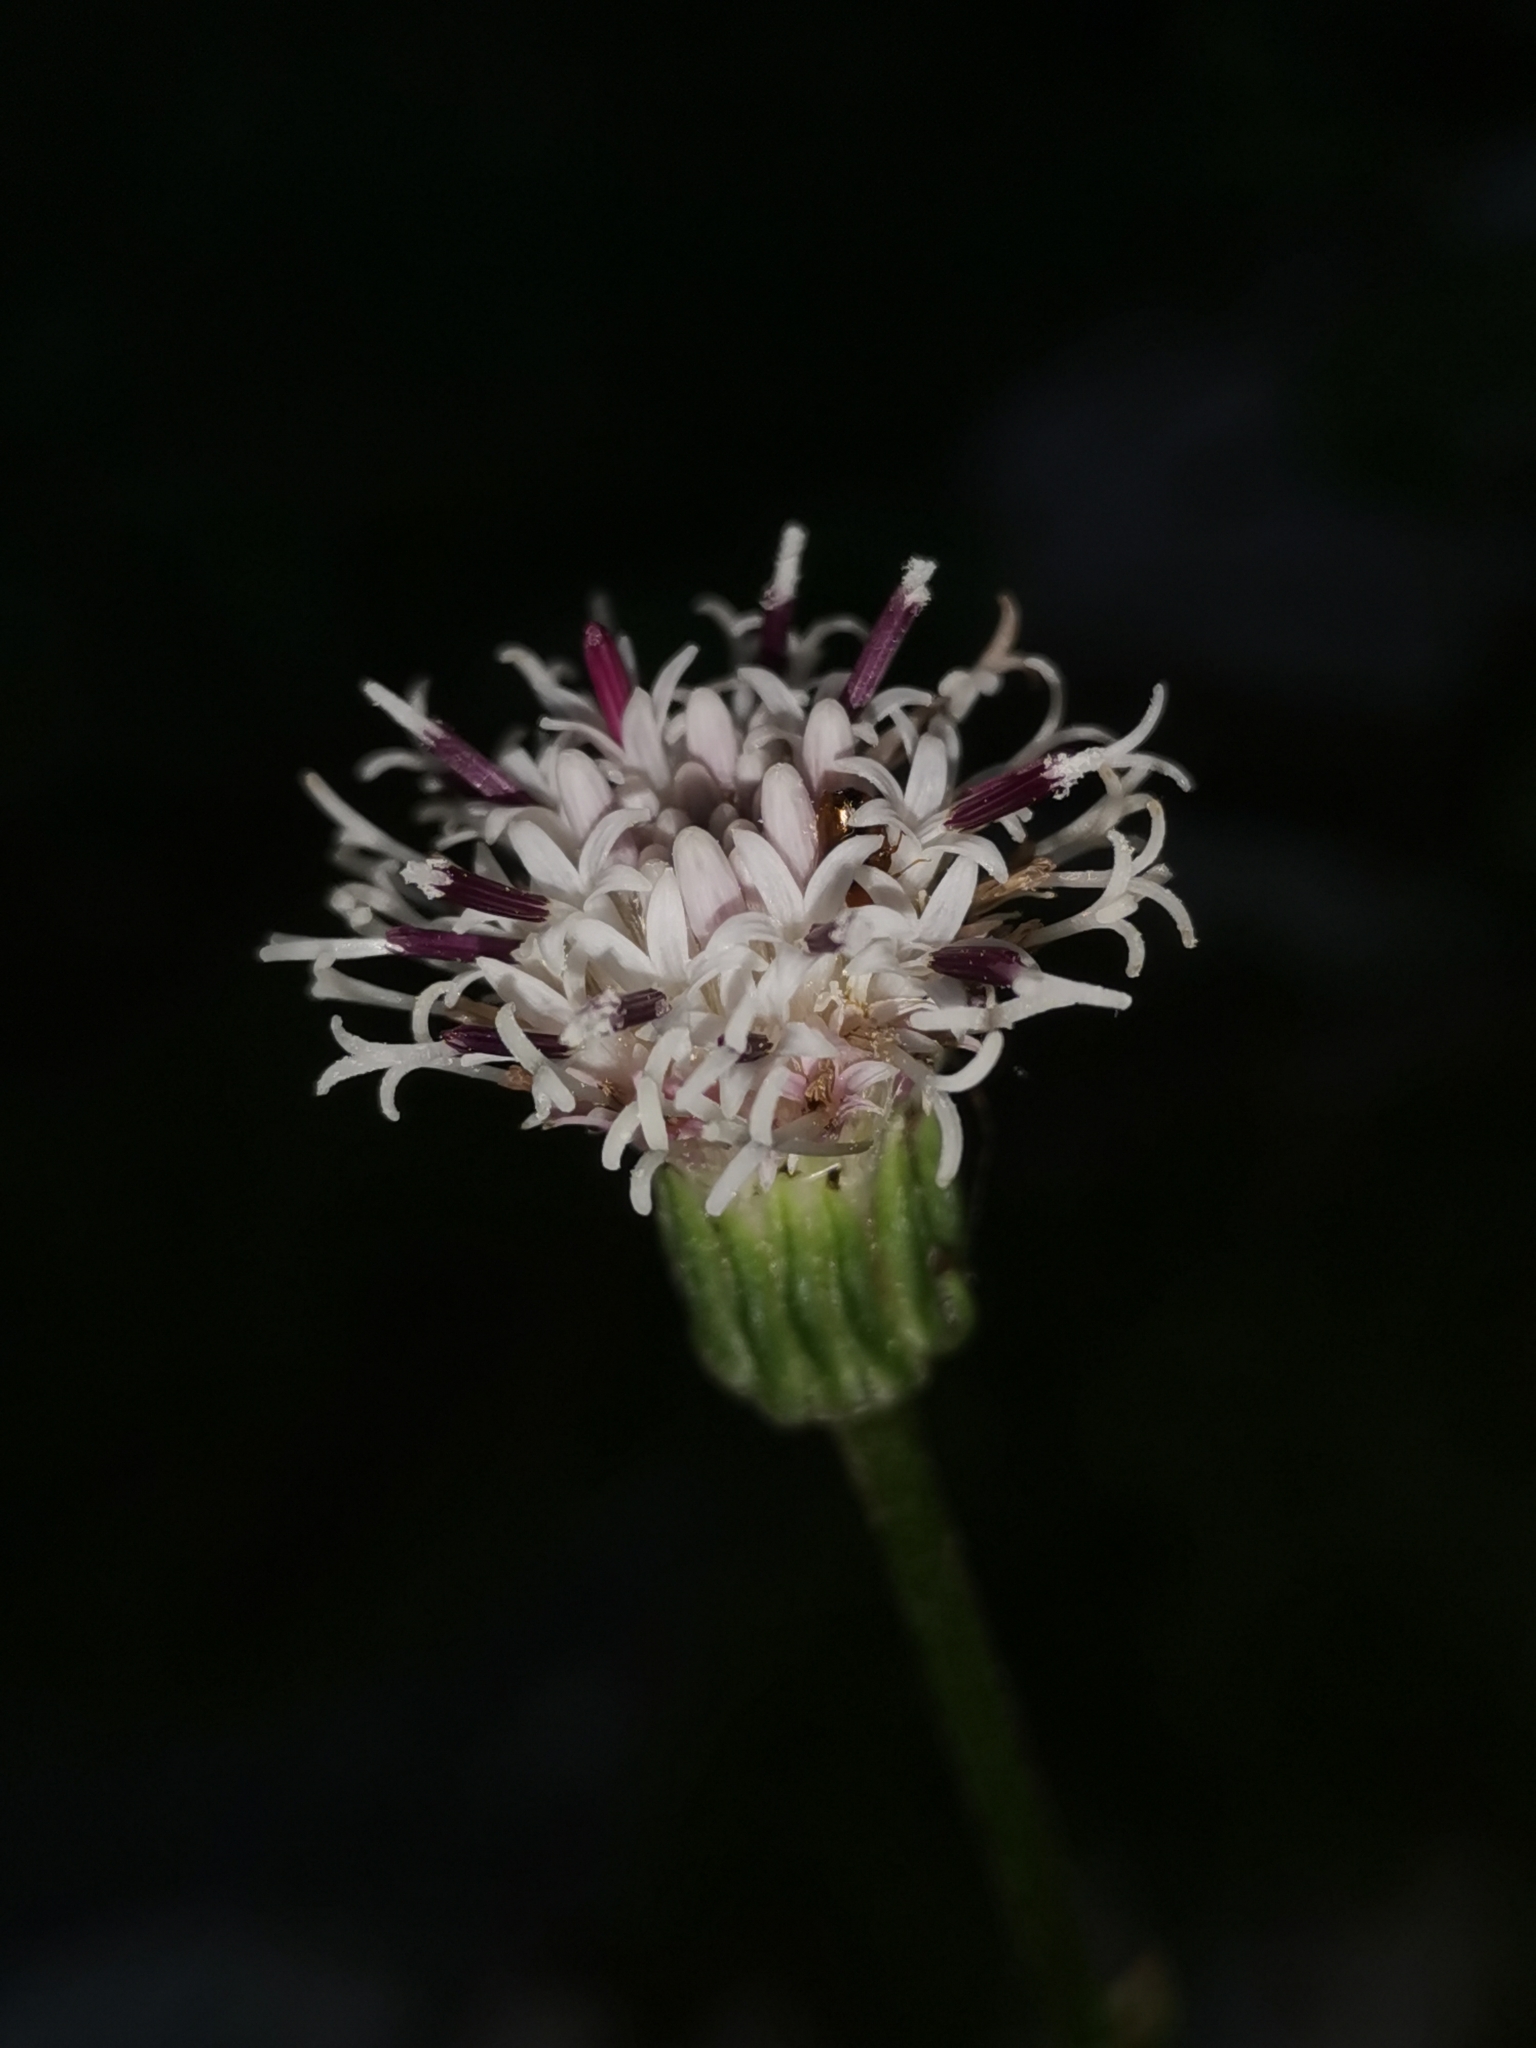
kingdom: Plantae
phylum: Tracheophyta
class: Magnoliopsida
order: Asterales
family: Asteraceae
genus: Homogyne
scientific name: Homogyne sylvestris
